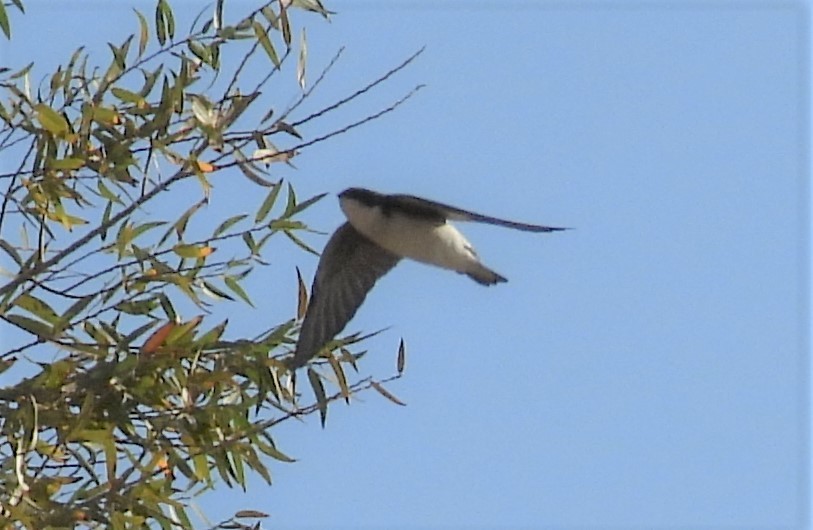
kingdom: Animalia
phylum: Chordata
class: Aves
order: Passeriformes
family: Hirundinidae
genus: Tachycineta
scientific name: Tachycineta bicolor
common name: Tree swallow
